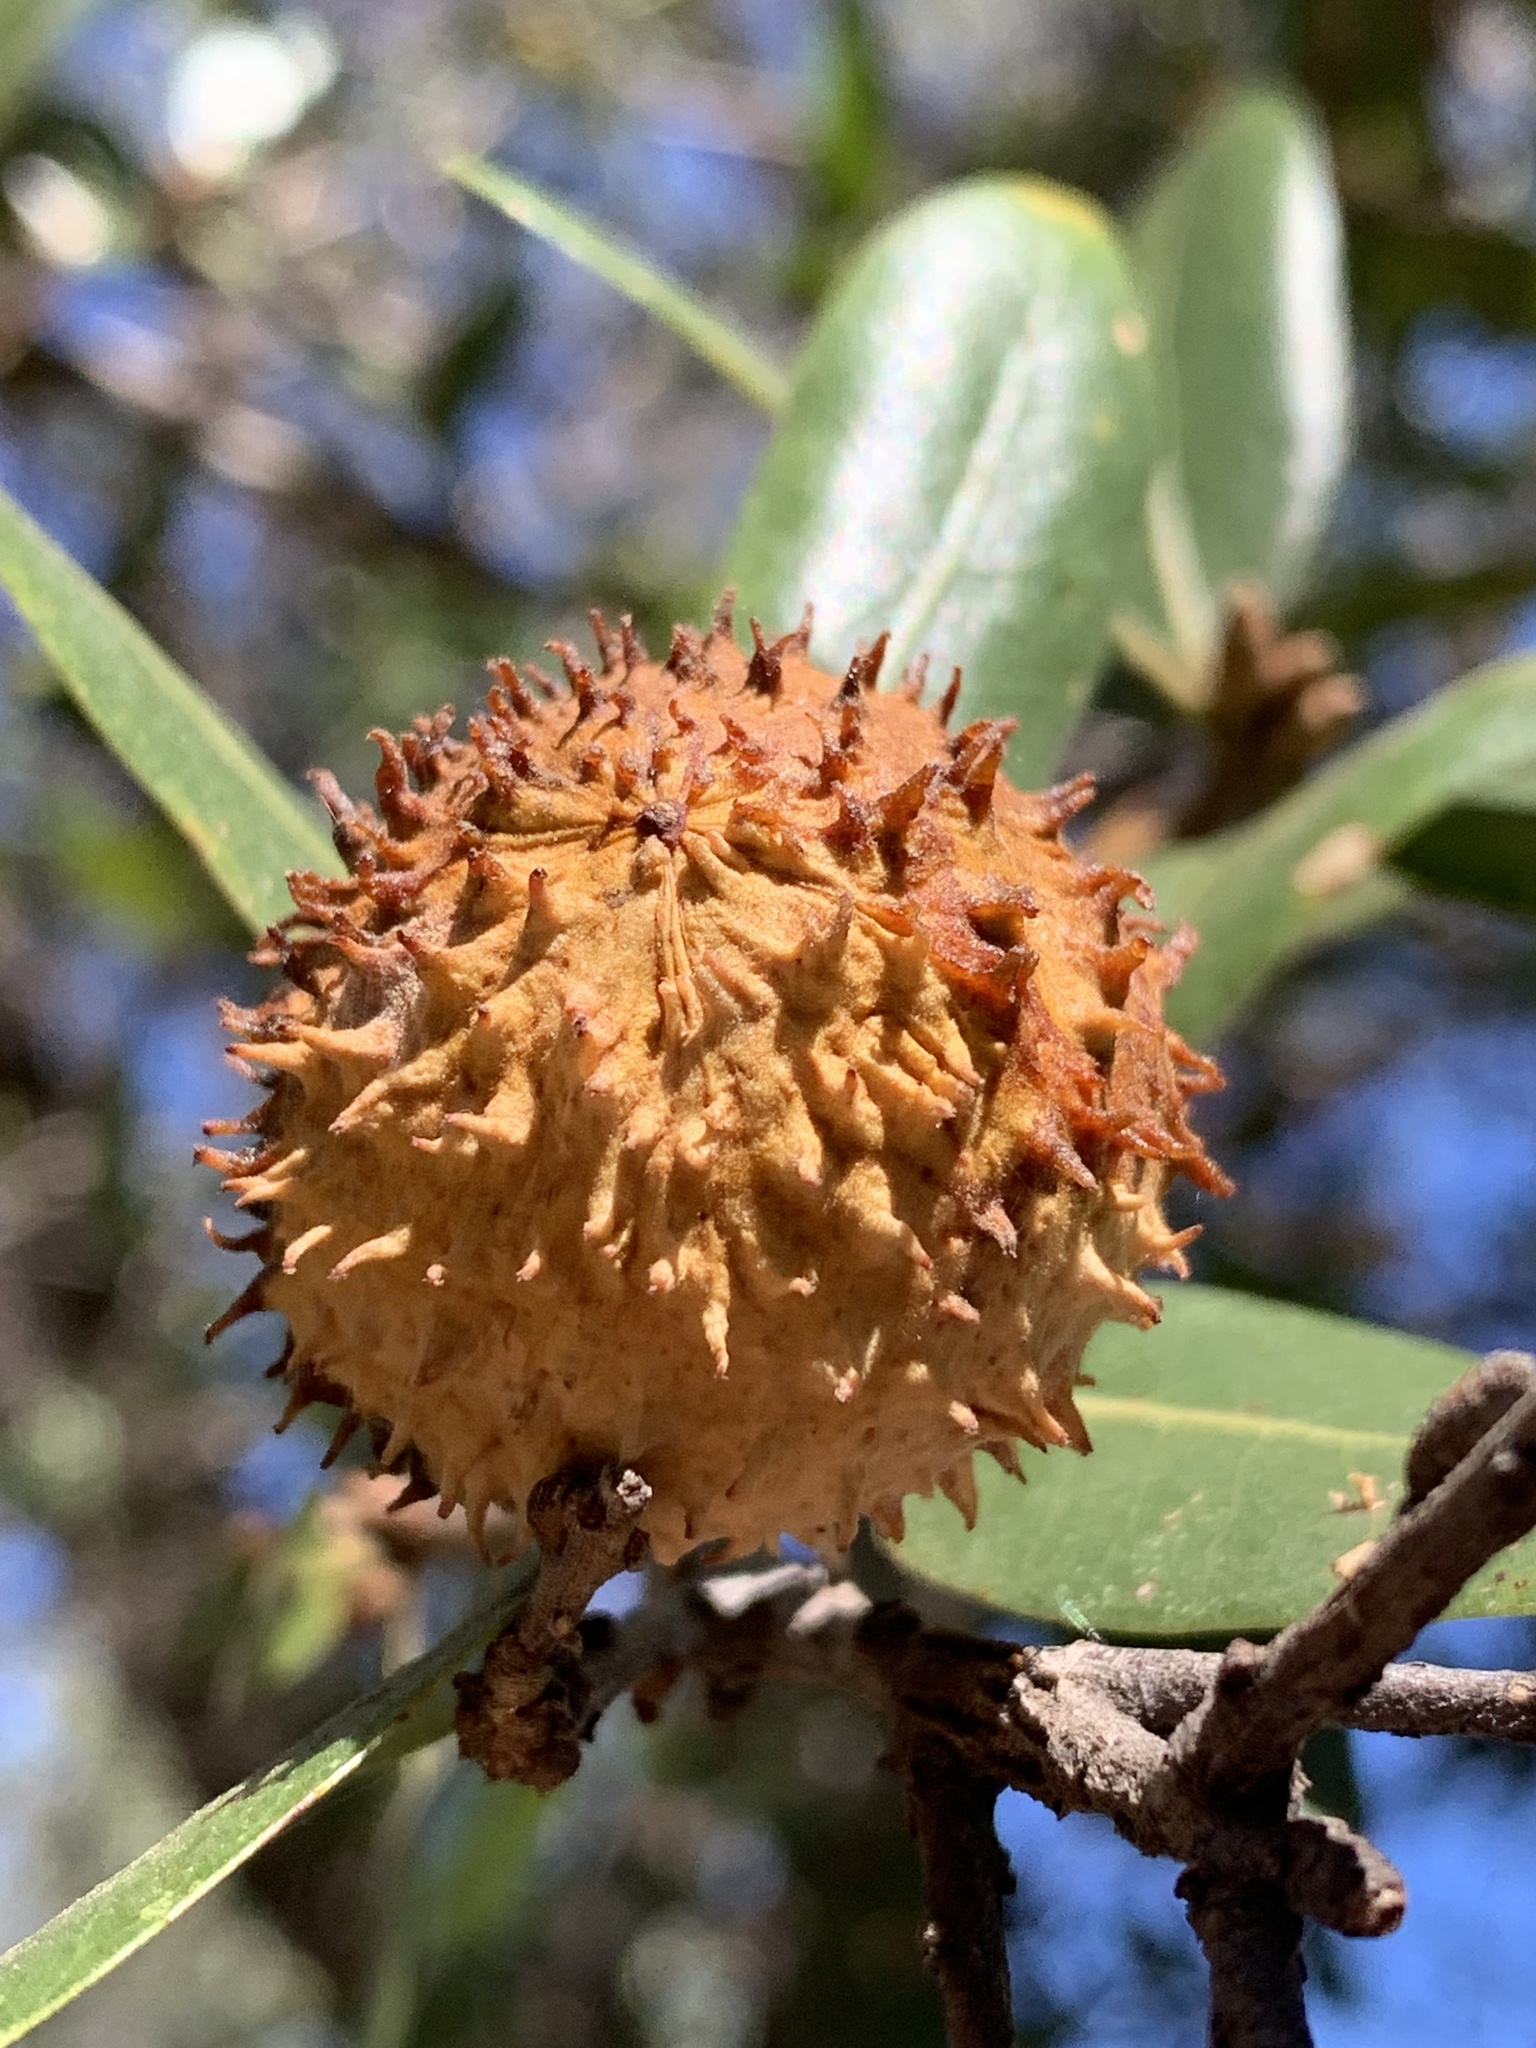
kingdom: Animalia
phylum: Arthropoda
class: Insecta
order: Hymenoptera
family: Cynipidae
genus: Amphibolips
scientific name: Amphibolips quercuspomiformis
